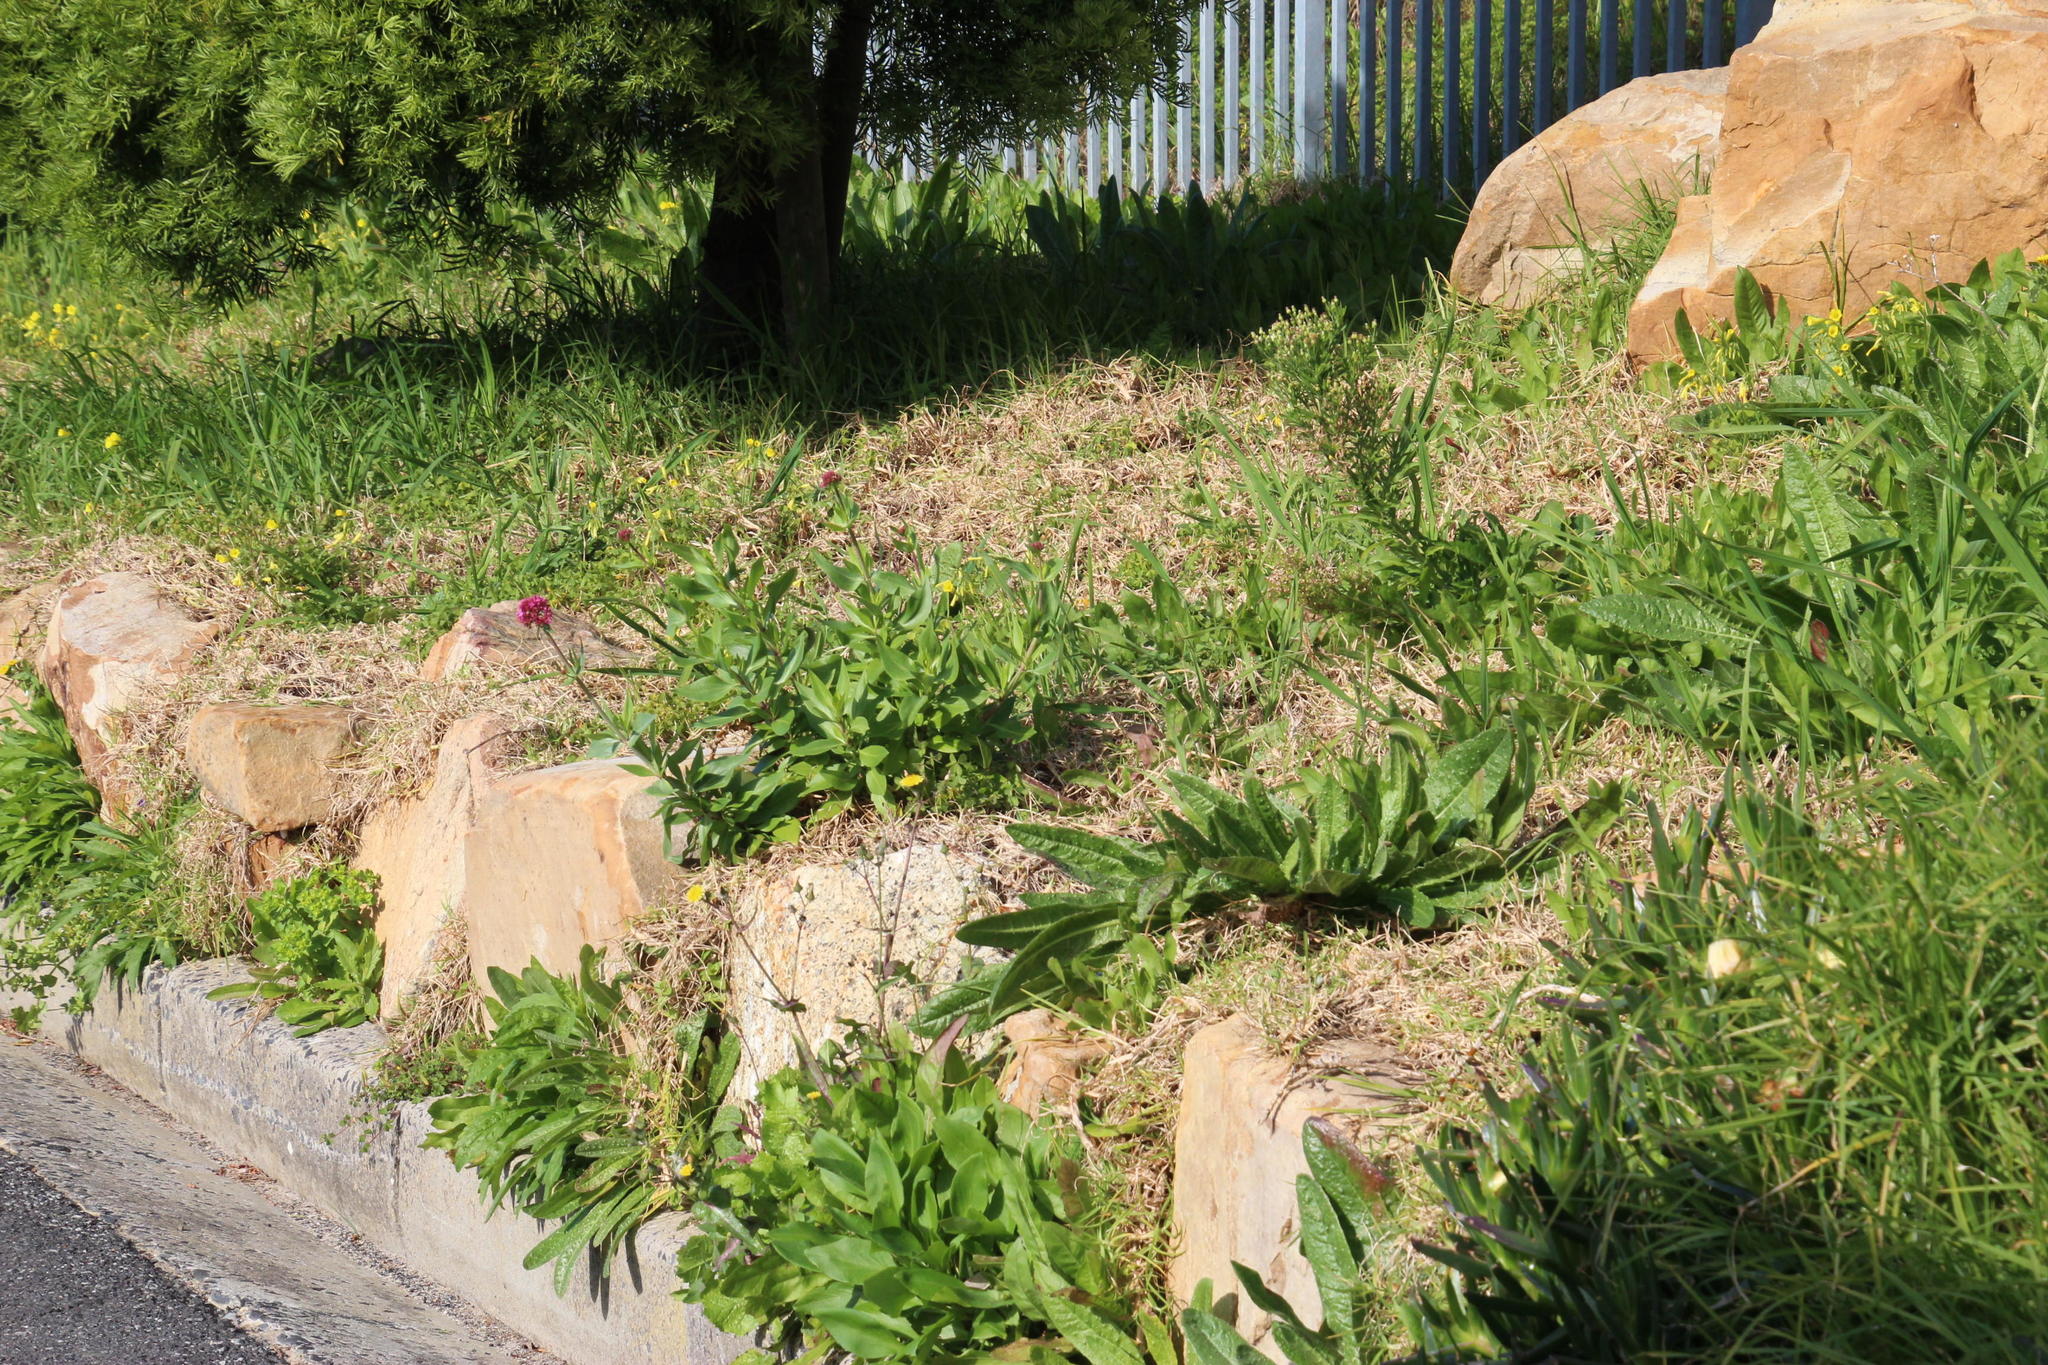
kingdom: Plantae
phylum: Tracheophyta
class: Magnoliopsida
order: Dipsacales
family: Caprifoliaceae
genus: Centranthus
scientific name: Centranthus ruber
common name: Red valerian
